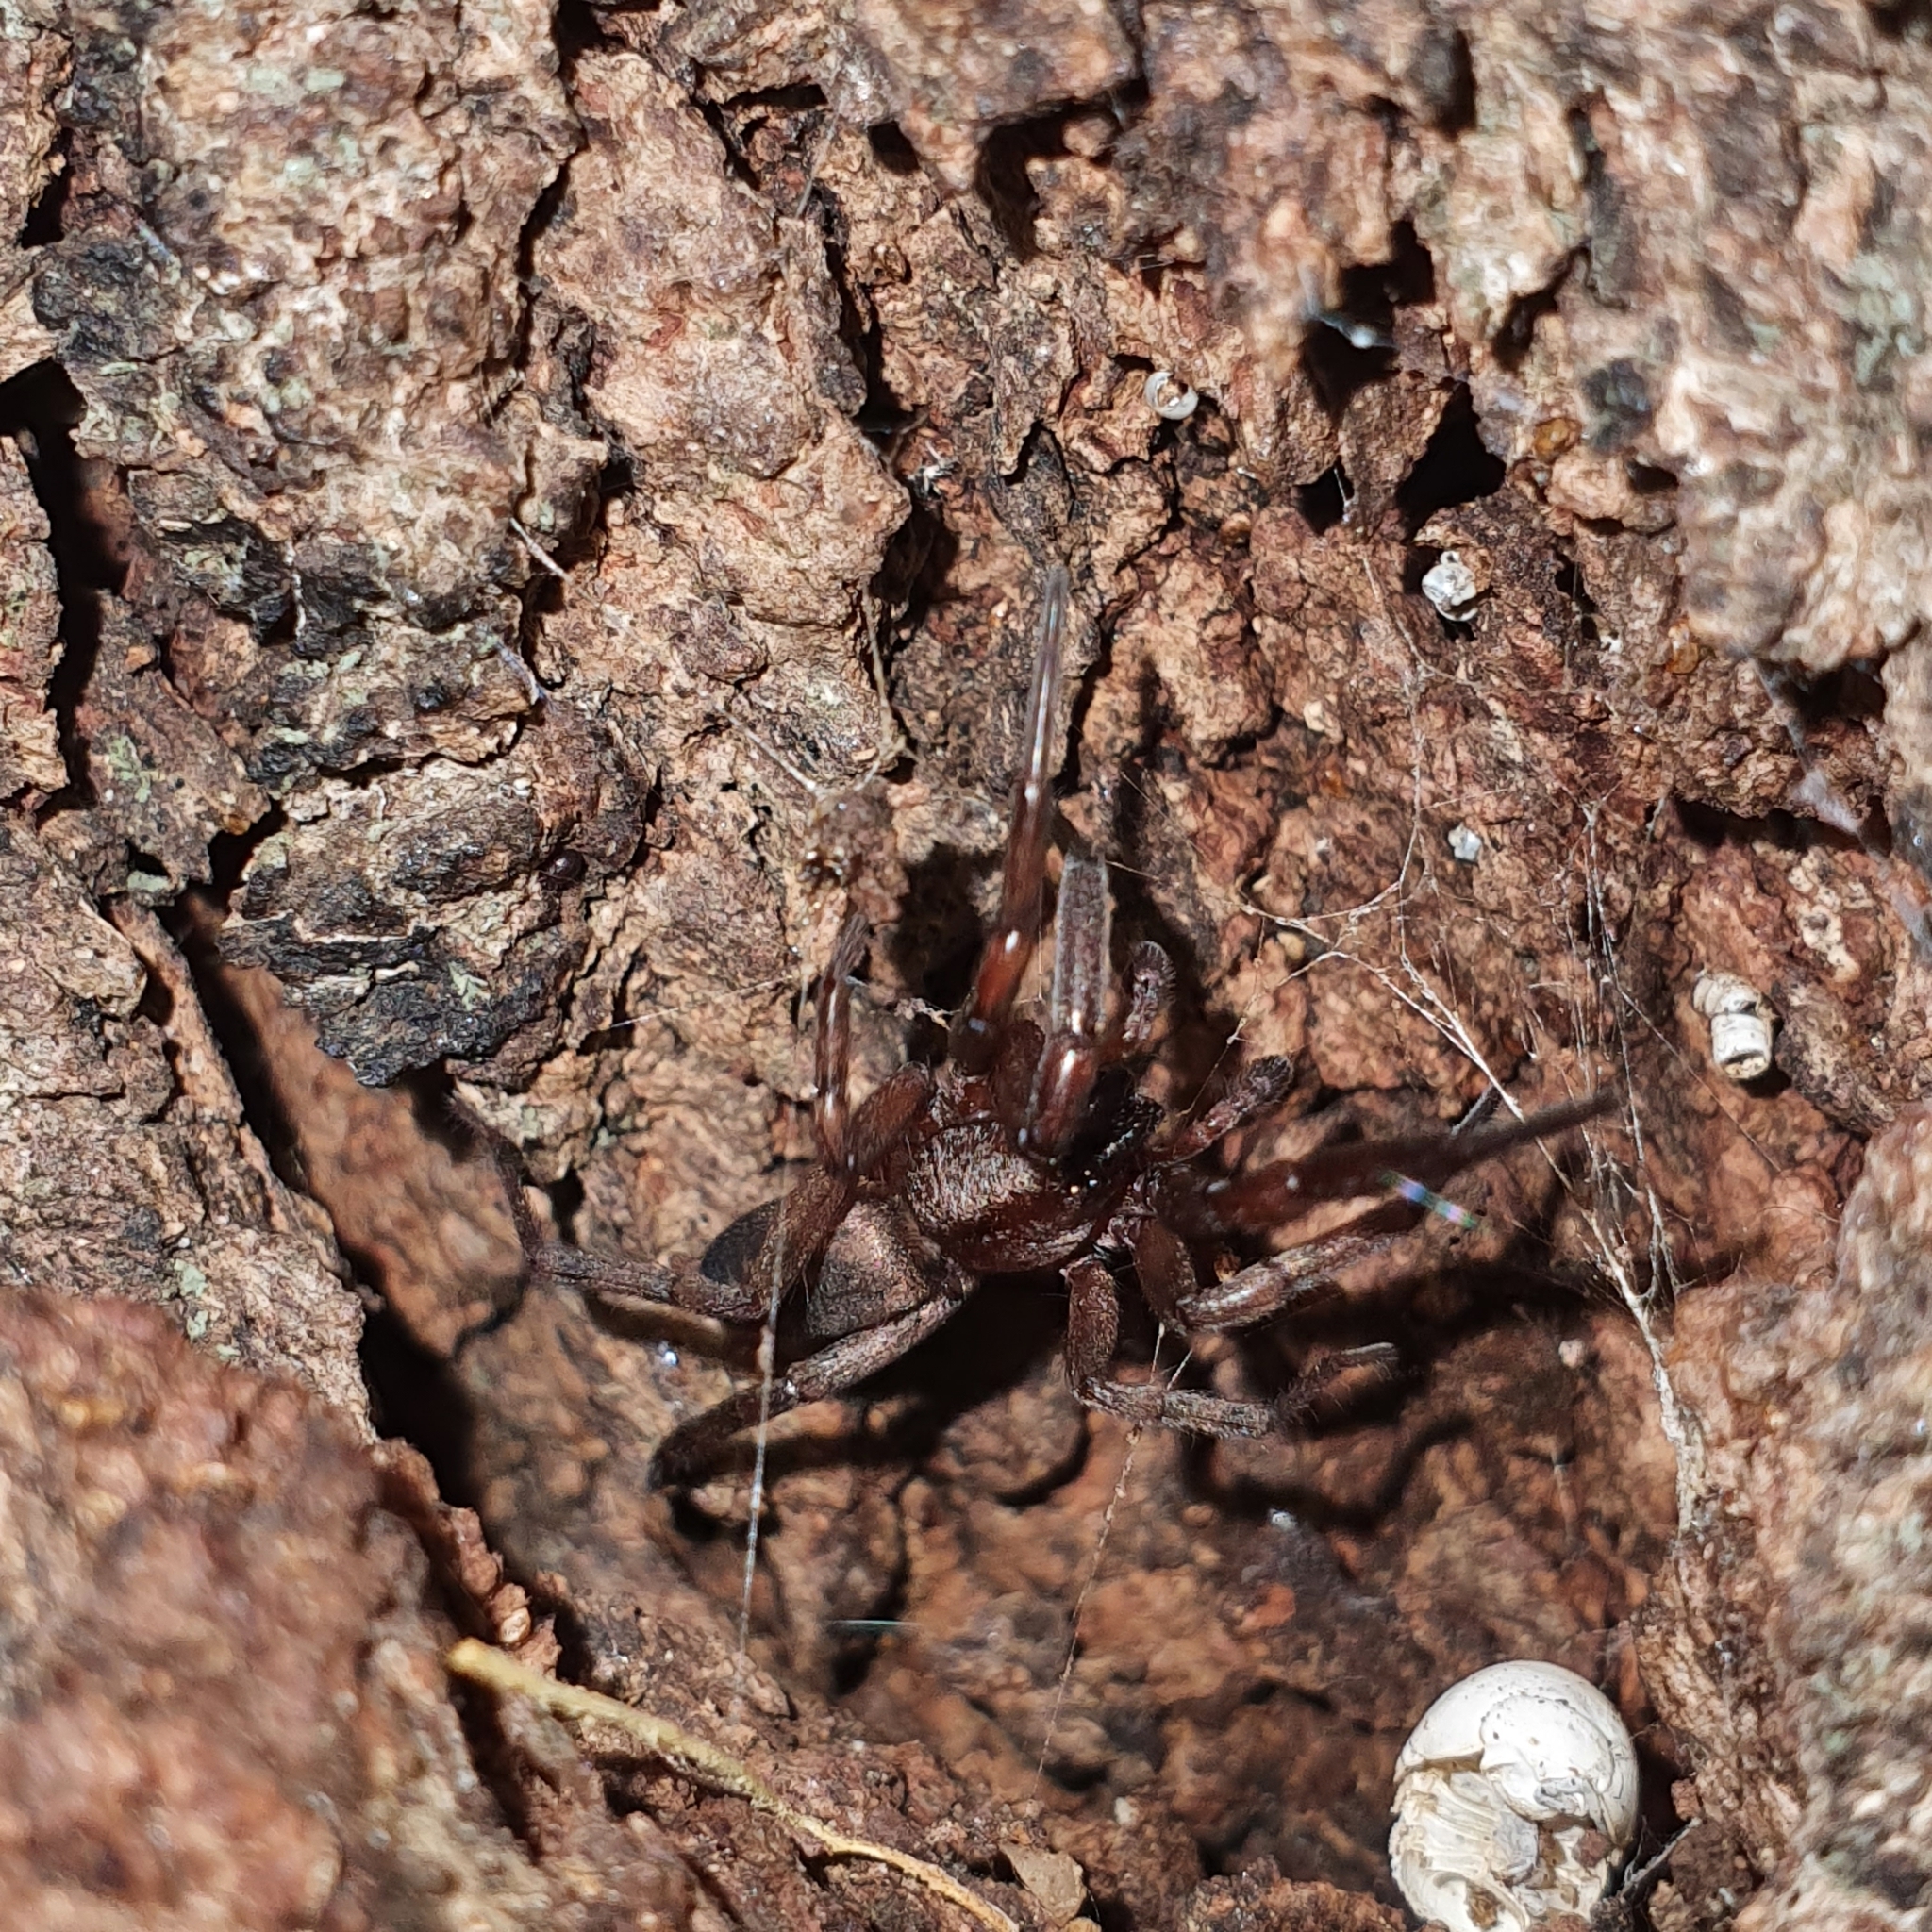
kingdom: Animalia
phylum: Arthropoda
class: Arachnida
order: Araneae
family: Gnaphosidae
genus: Intruda
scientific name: Intruda signata
